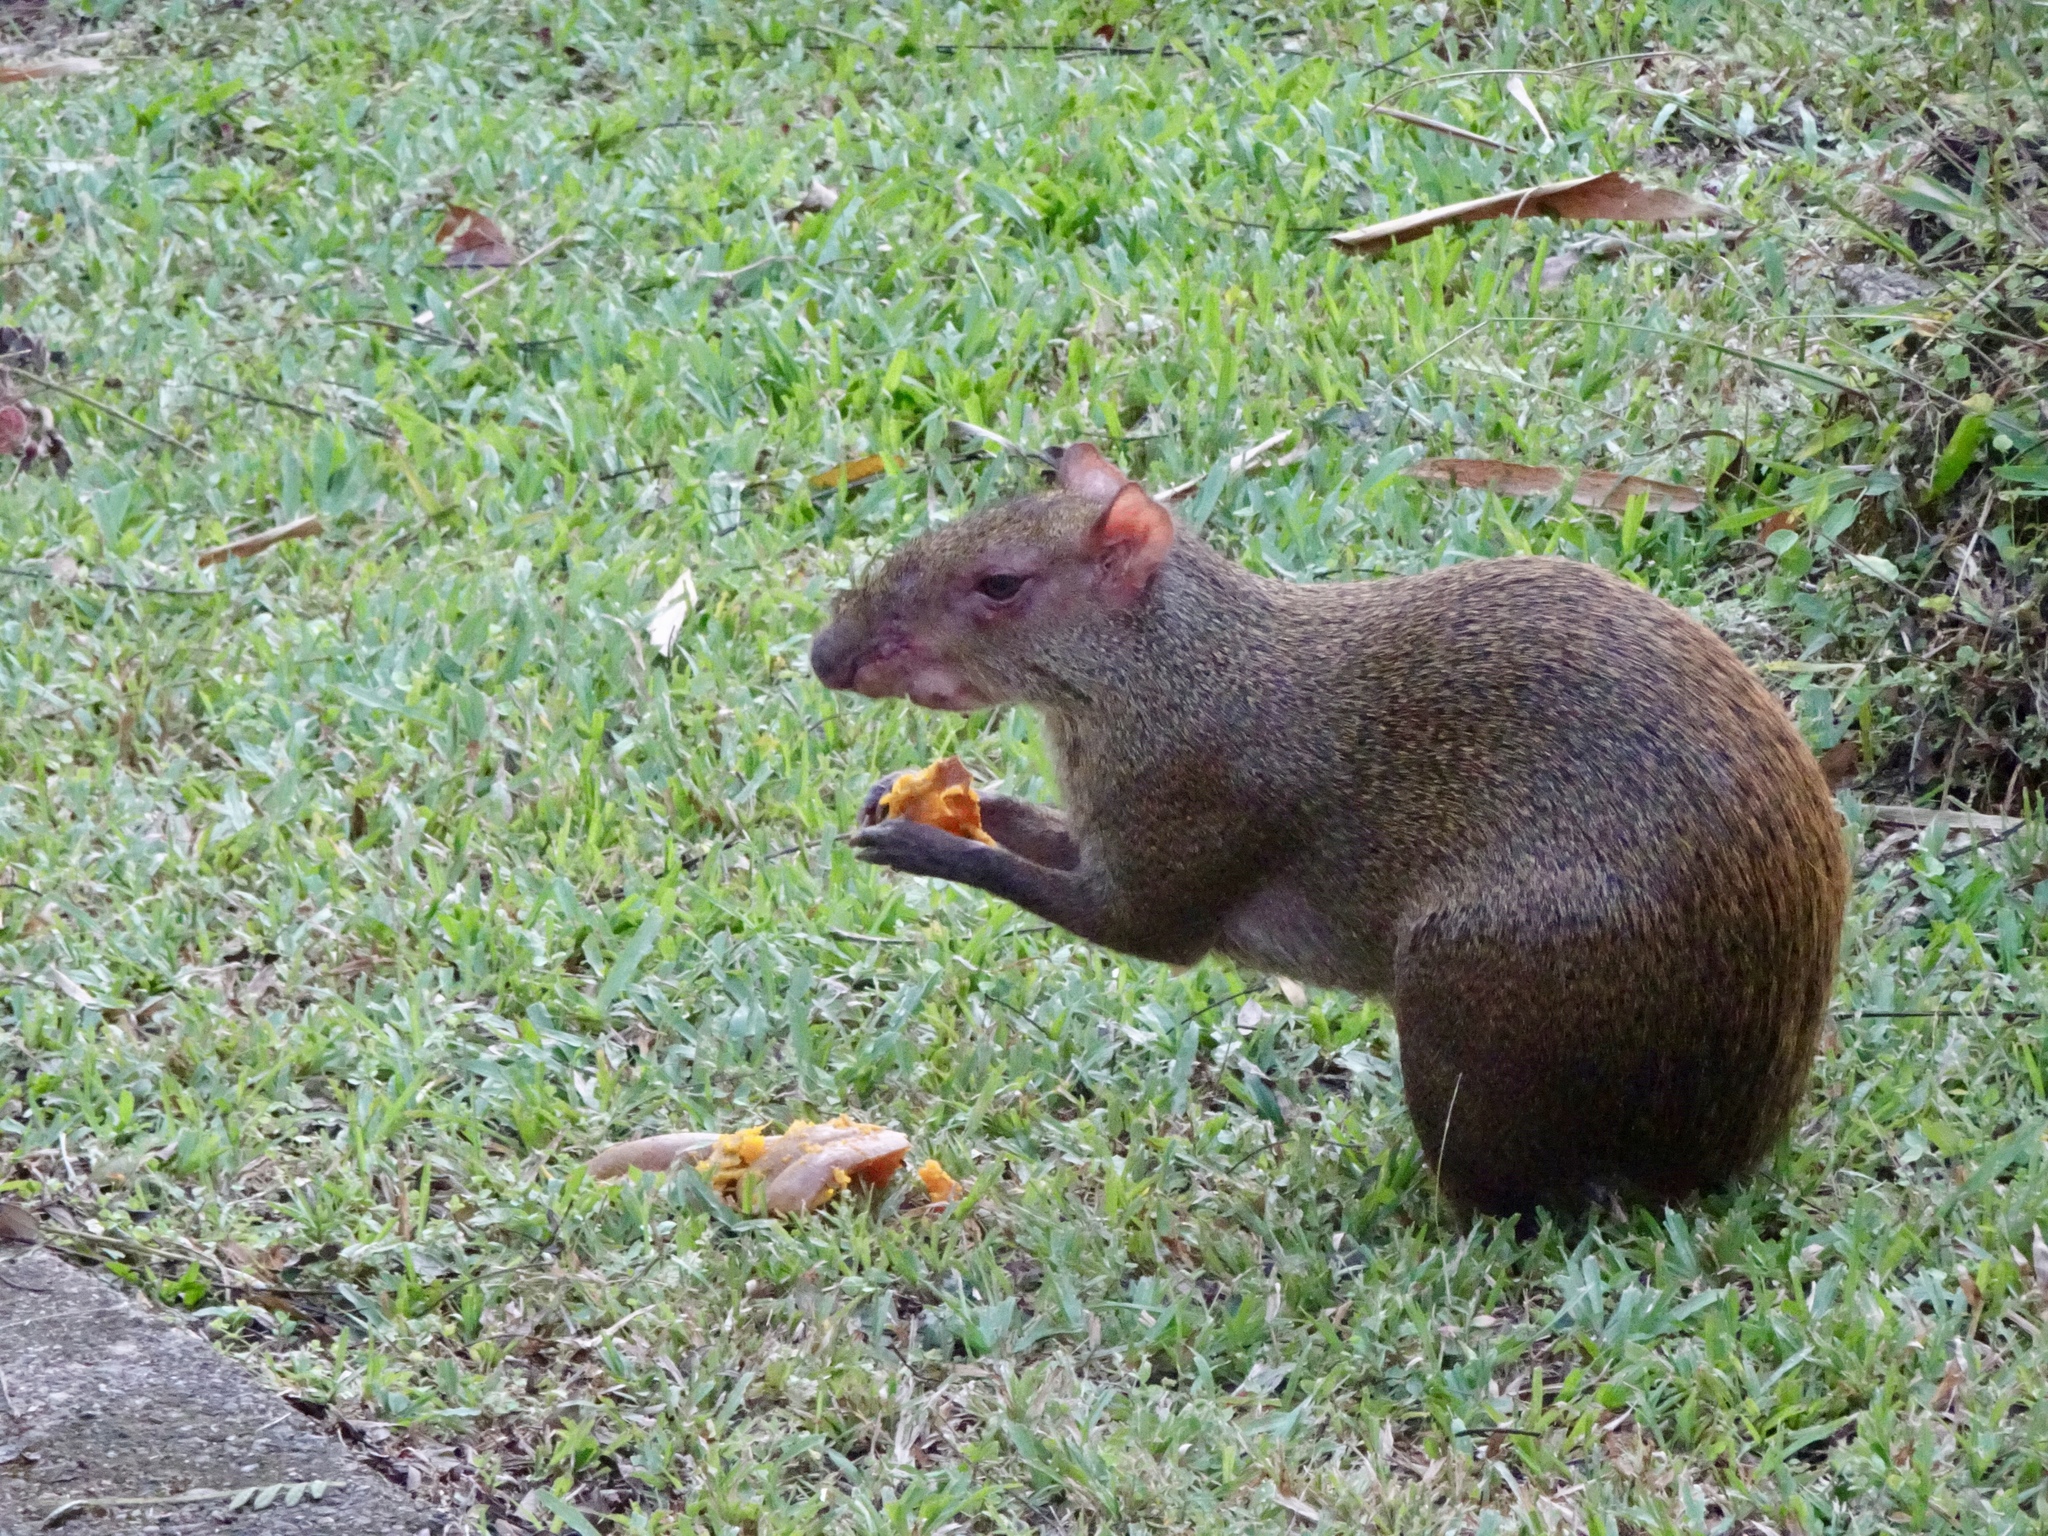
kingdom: Animalia
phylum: Chordata
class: Mammalia
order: Rodentia
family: Dasyproctidae
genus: Dasyprocta
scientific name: Dasyprocta punctata
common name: Central american agouti
